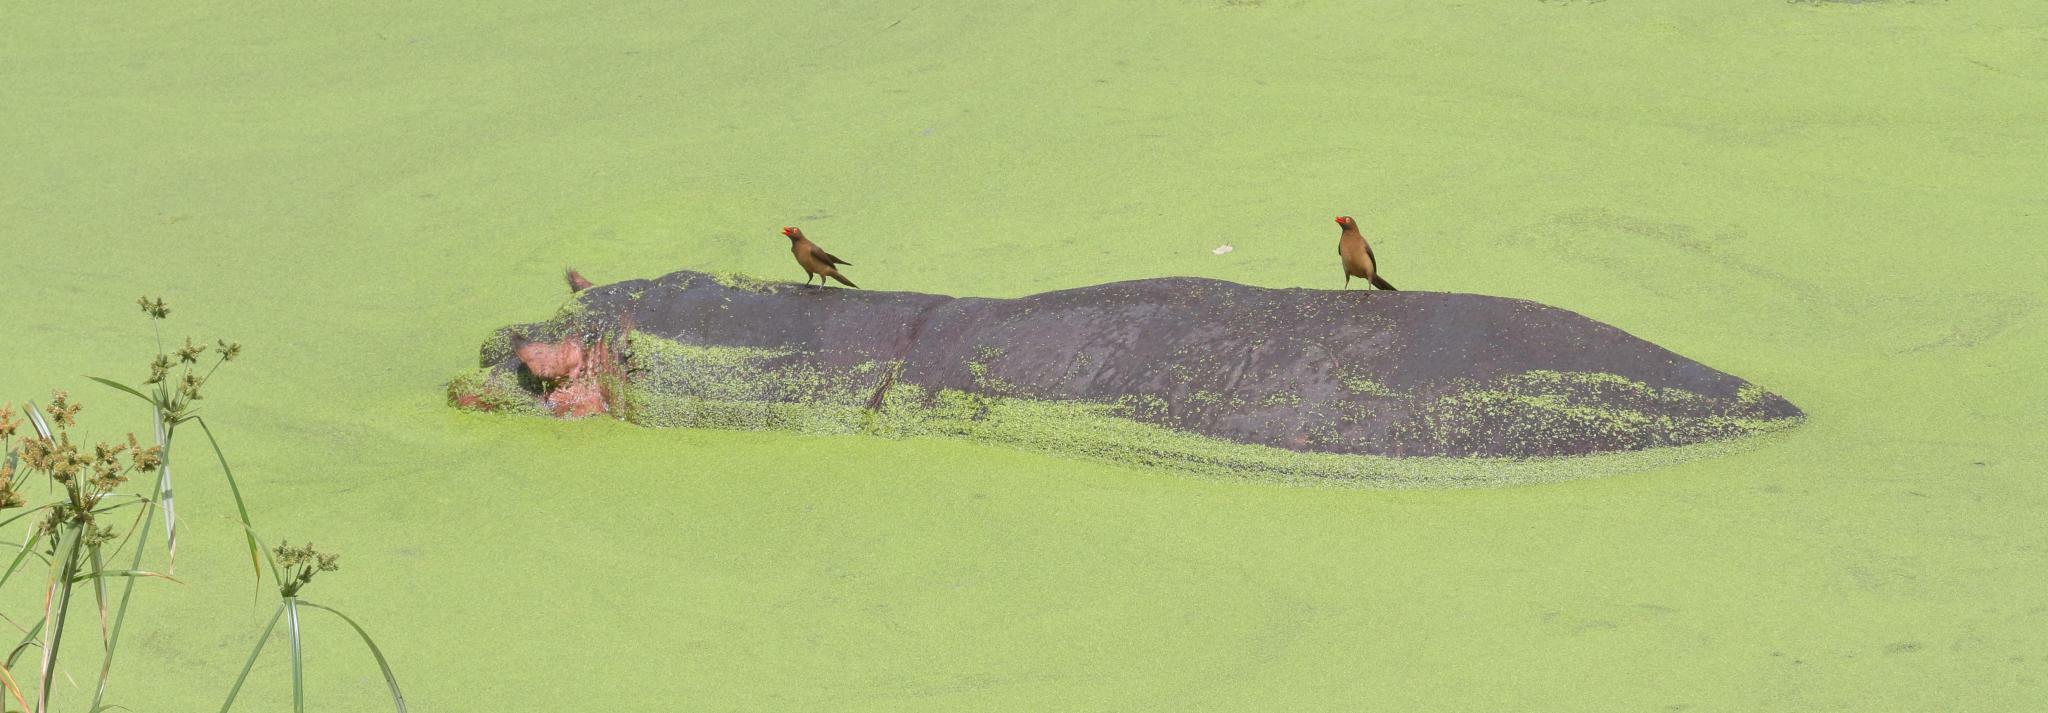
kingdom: Animalia
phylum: Chordata
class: Mammalia
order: Artiodactyla
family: Hippopotamidae
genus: Hippopotamus
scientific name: Hippopotamus amphibius
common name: Common hippopotamus
